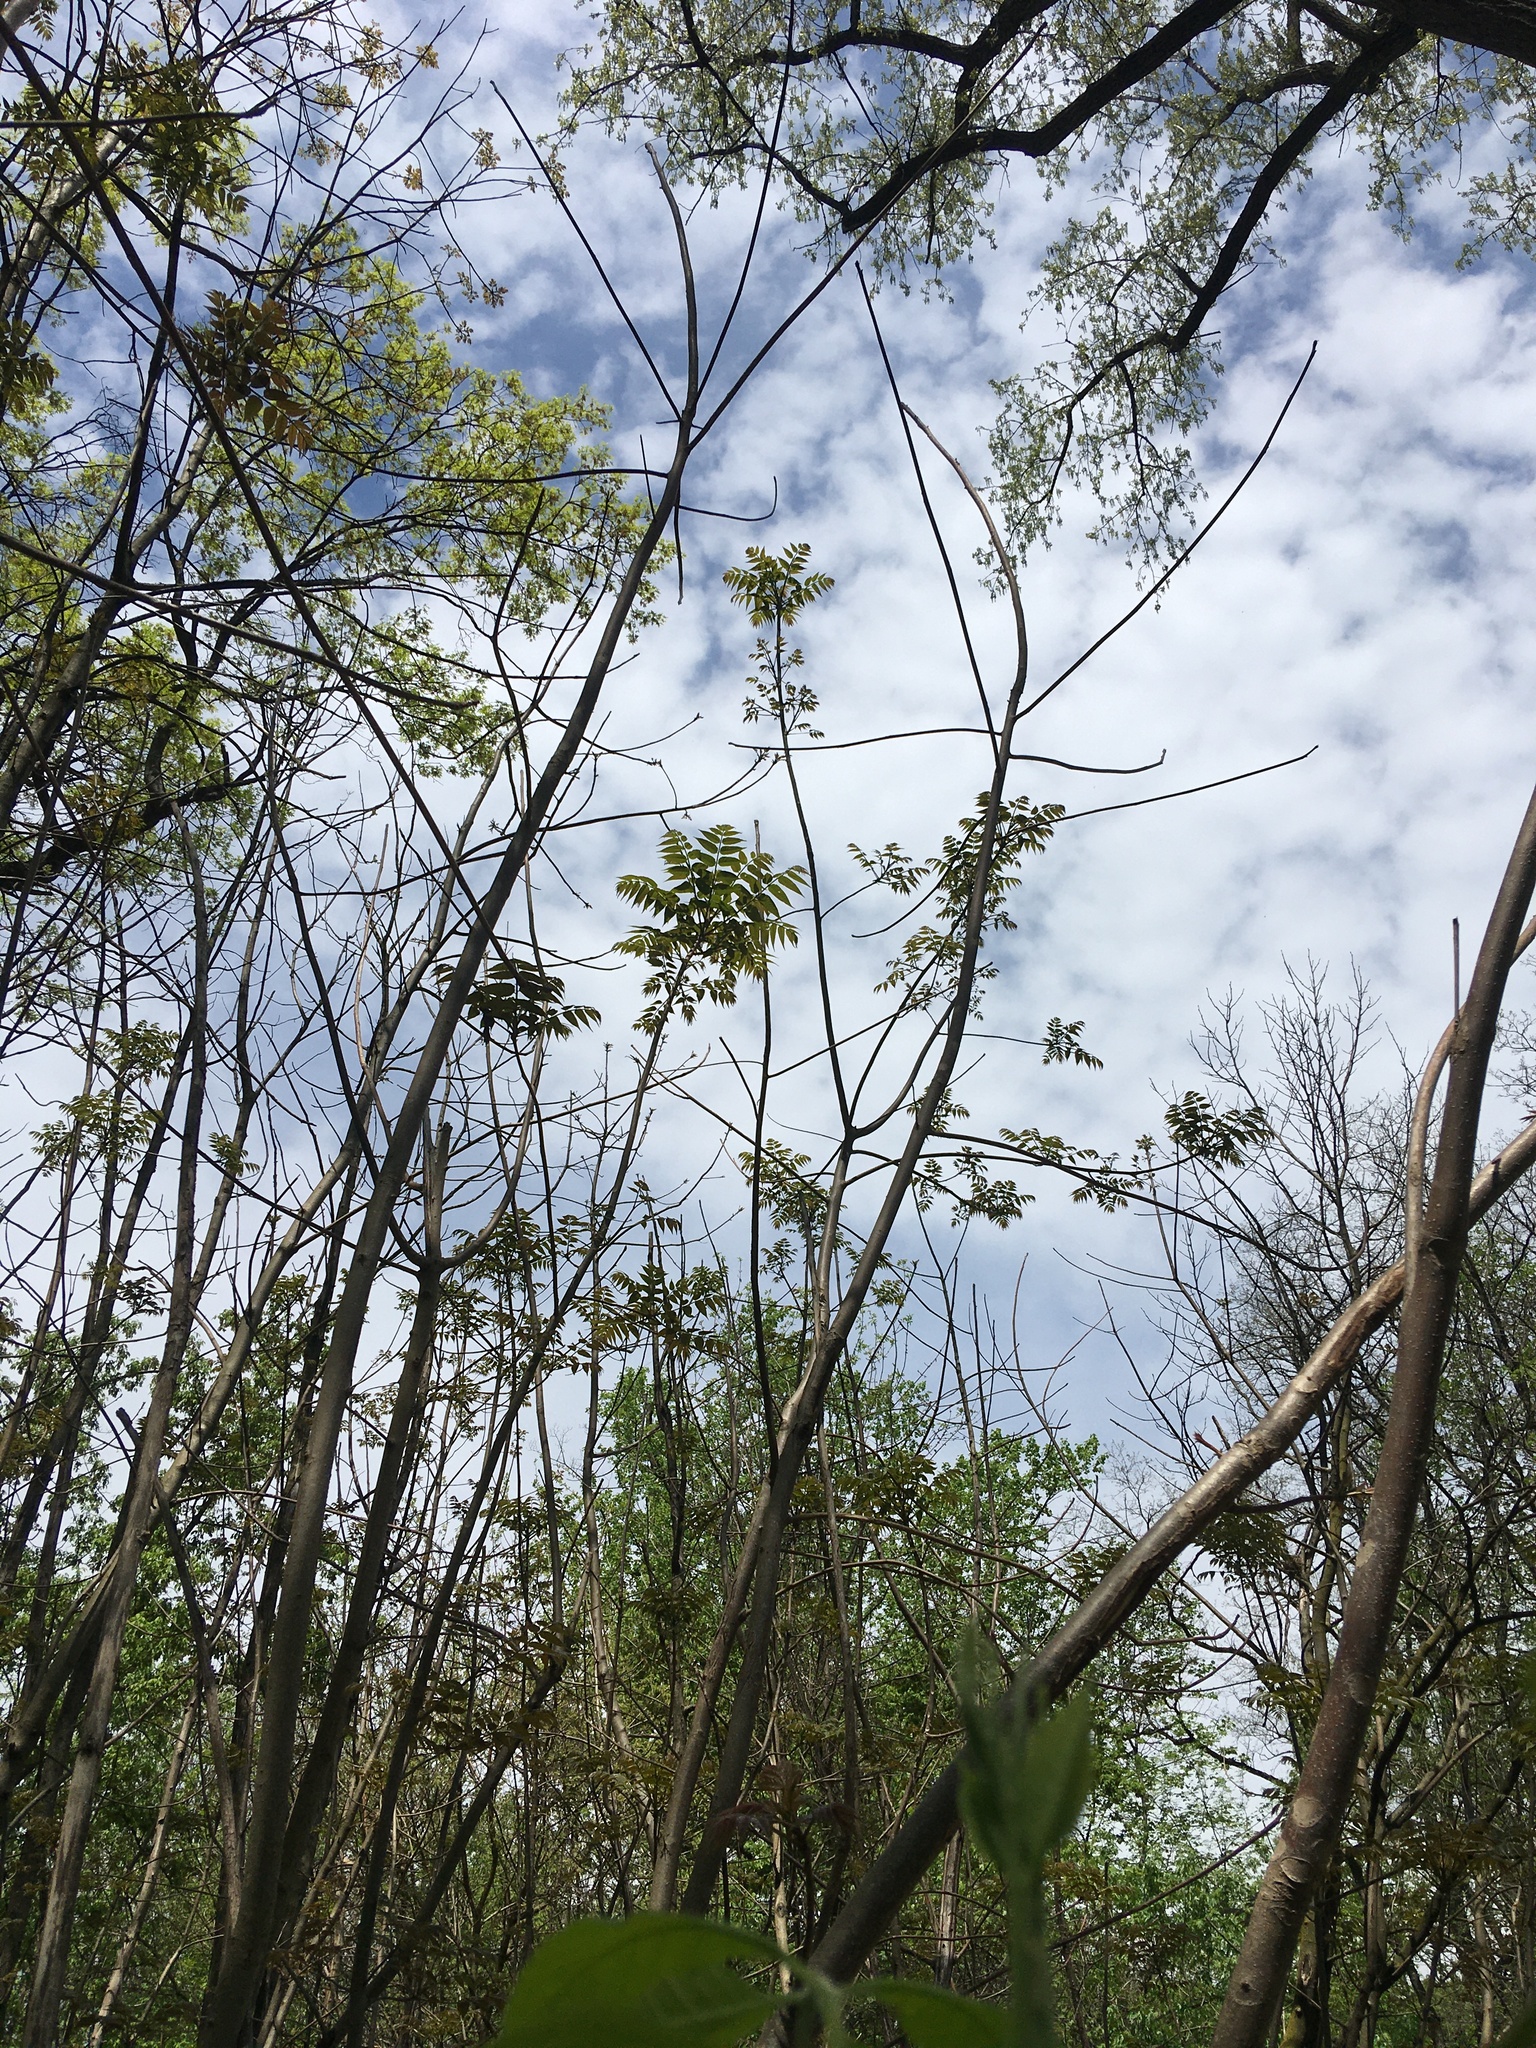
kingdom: Plantae
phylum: Tracheophyta
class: Magnoliopsida
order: Sapindales
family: Meliaceae
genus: Toona
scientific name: Toona sinensis
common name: Red toon
